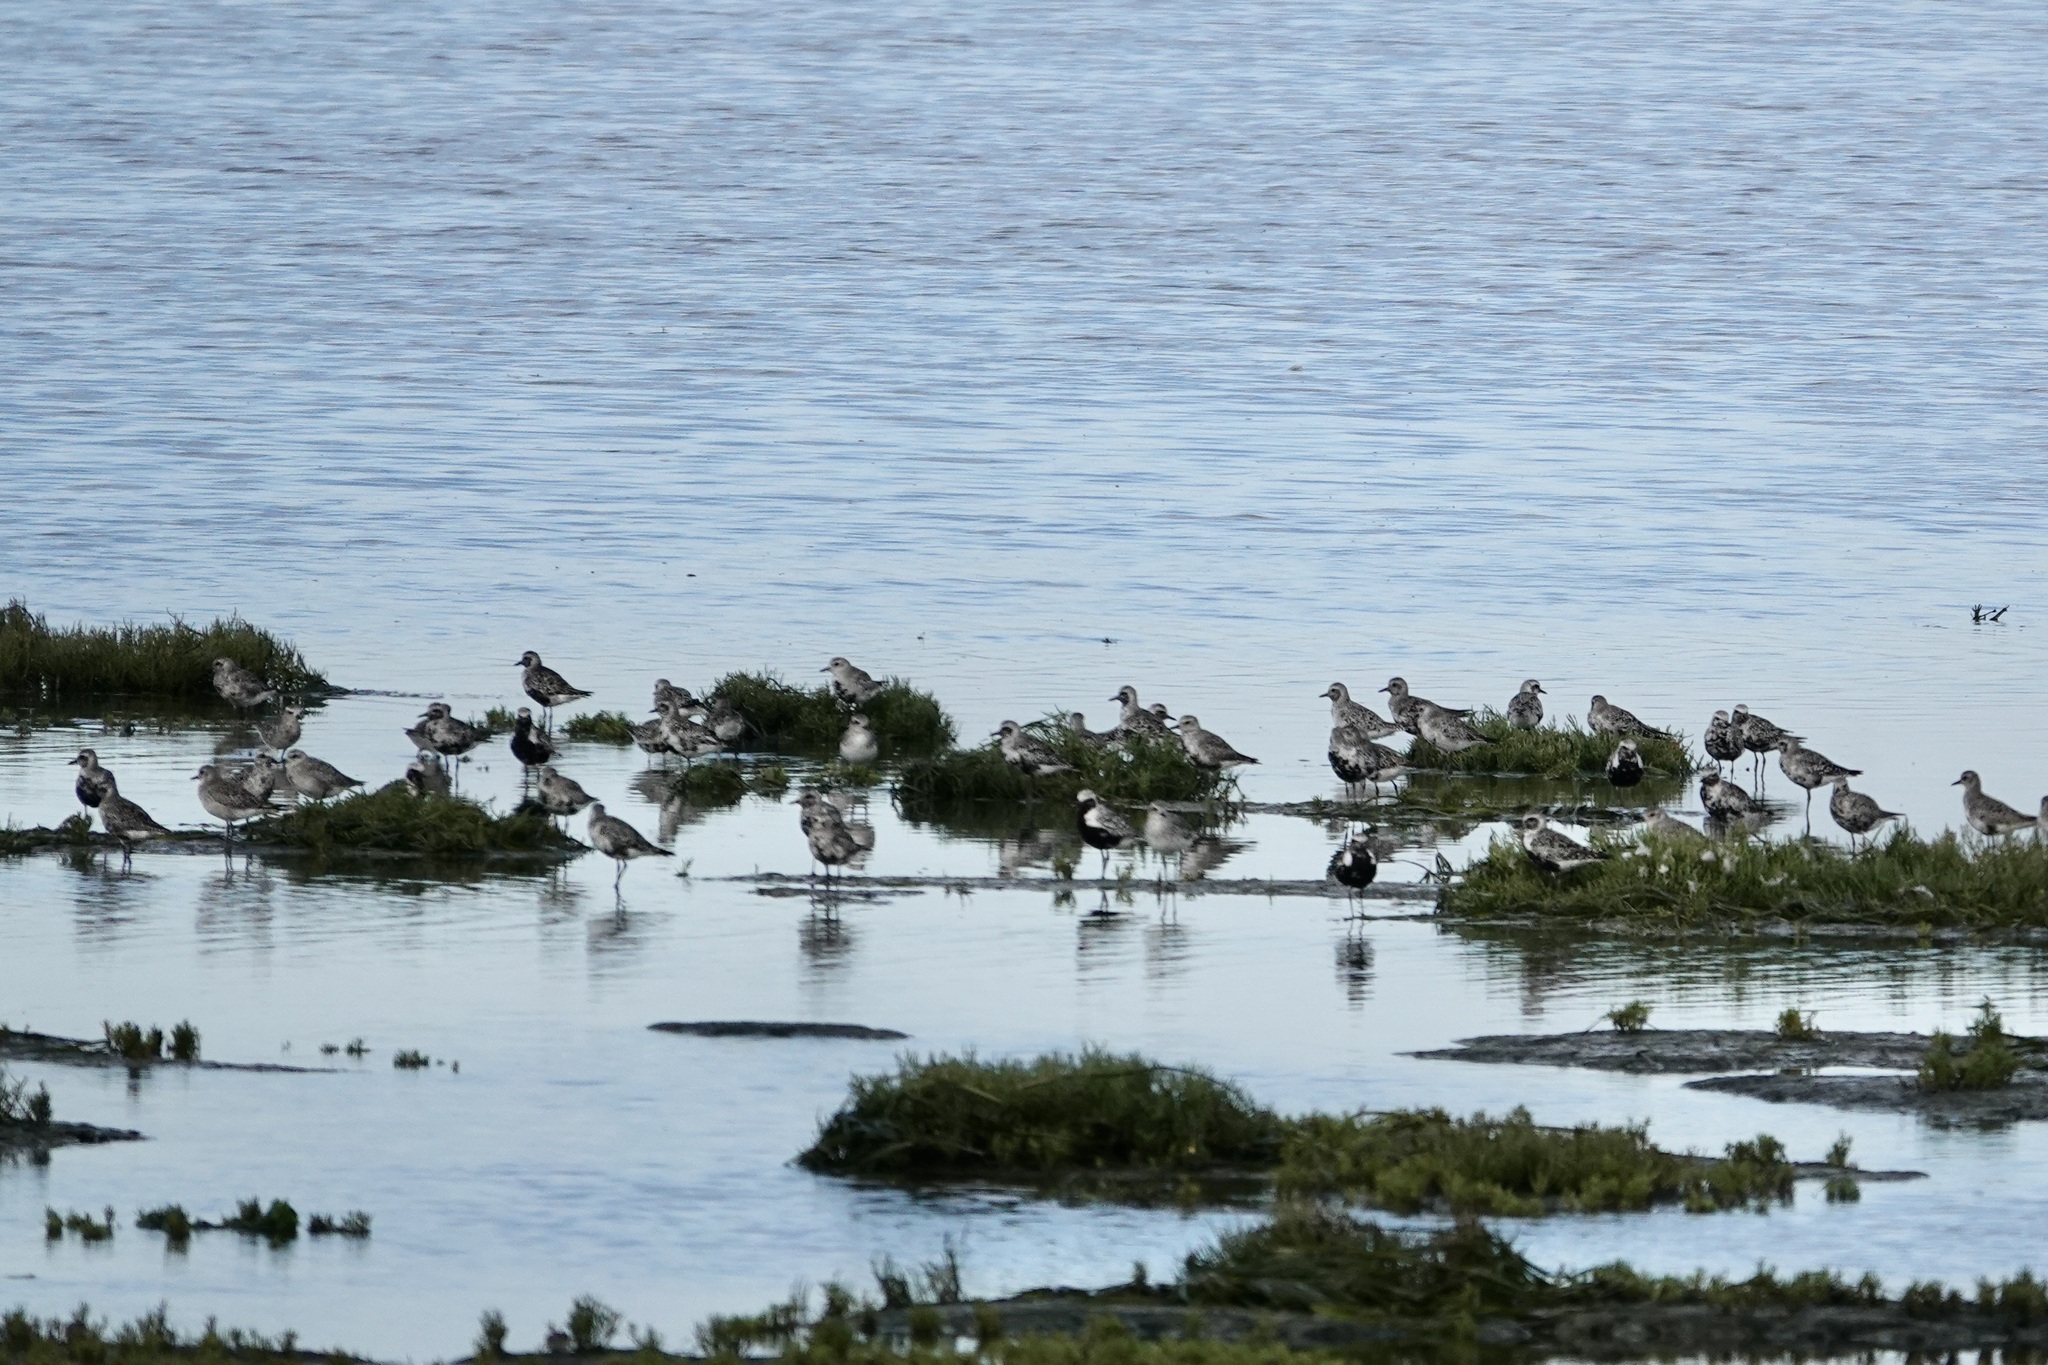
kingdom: Animalia
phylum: Chordata
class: Aves
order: Charadriiformes
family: Charadriidae
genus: Pluvialis
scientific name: Pluvialis squatarola
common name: Grey plover
